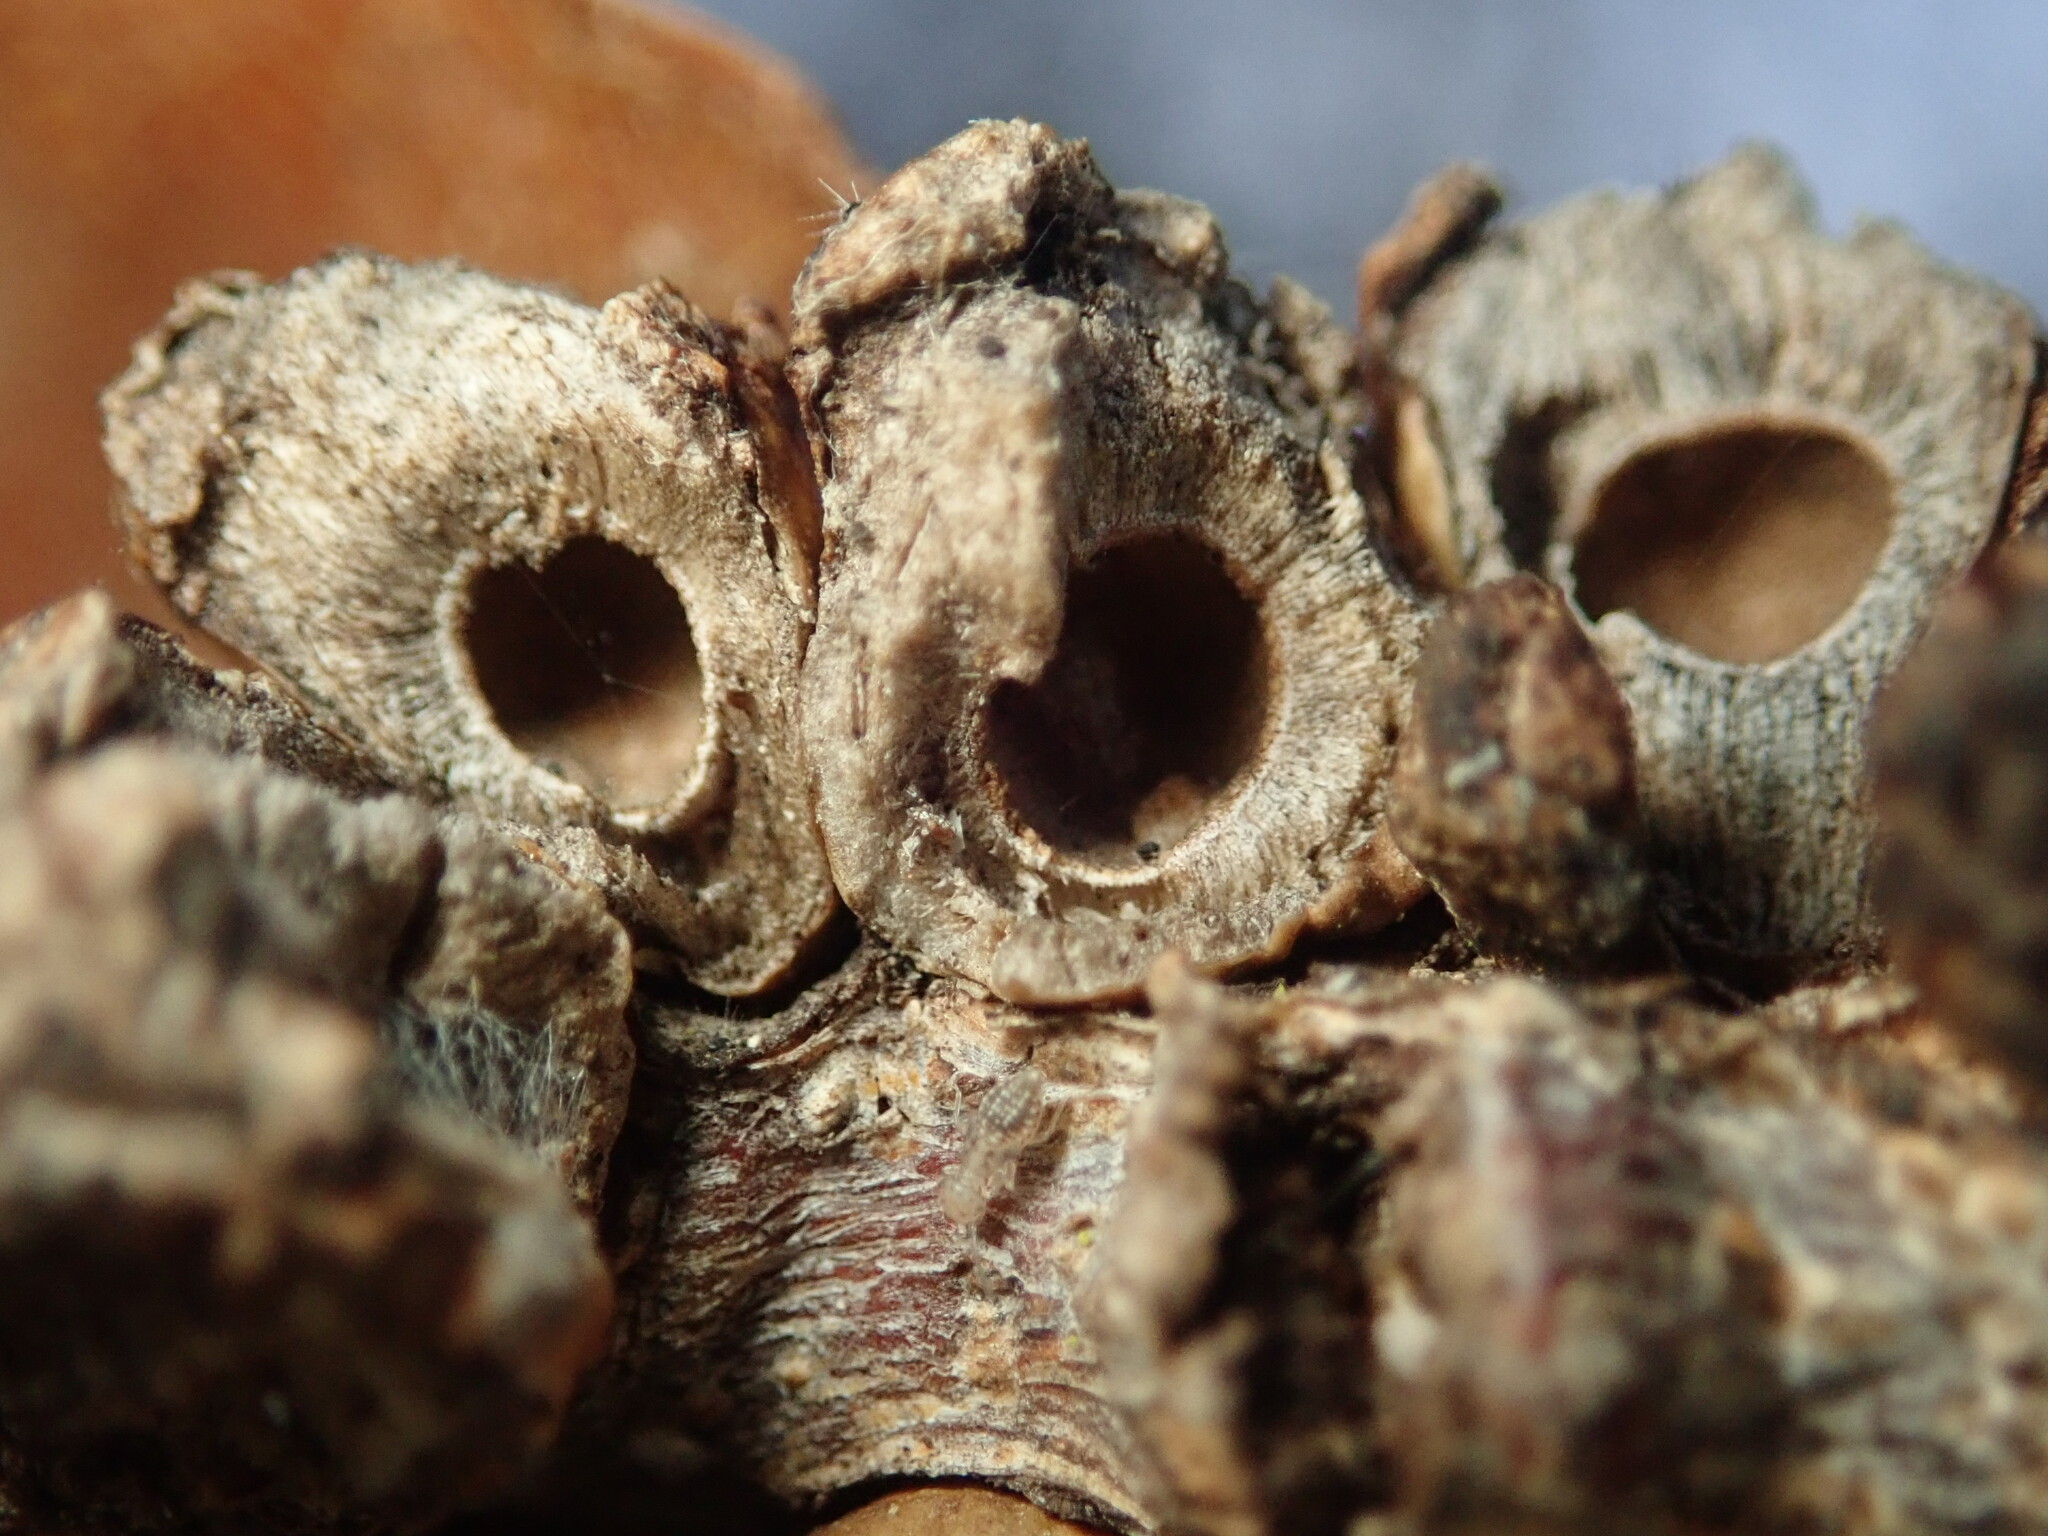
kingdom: Animalia
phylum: Arthropoda
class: Insecta
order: Hymenoptera
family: Cynipidae
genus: Disholcaspis
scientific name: Disholcaspis
